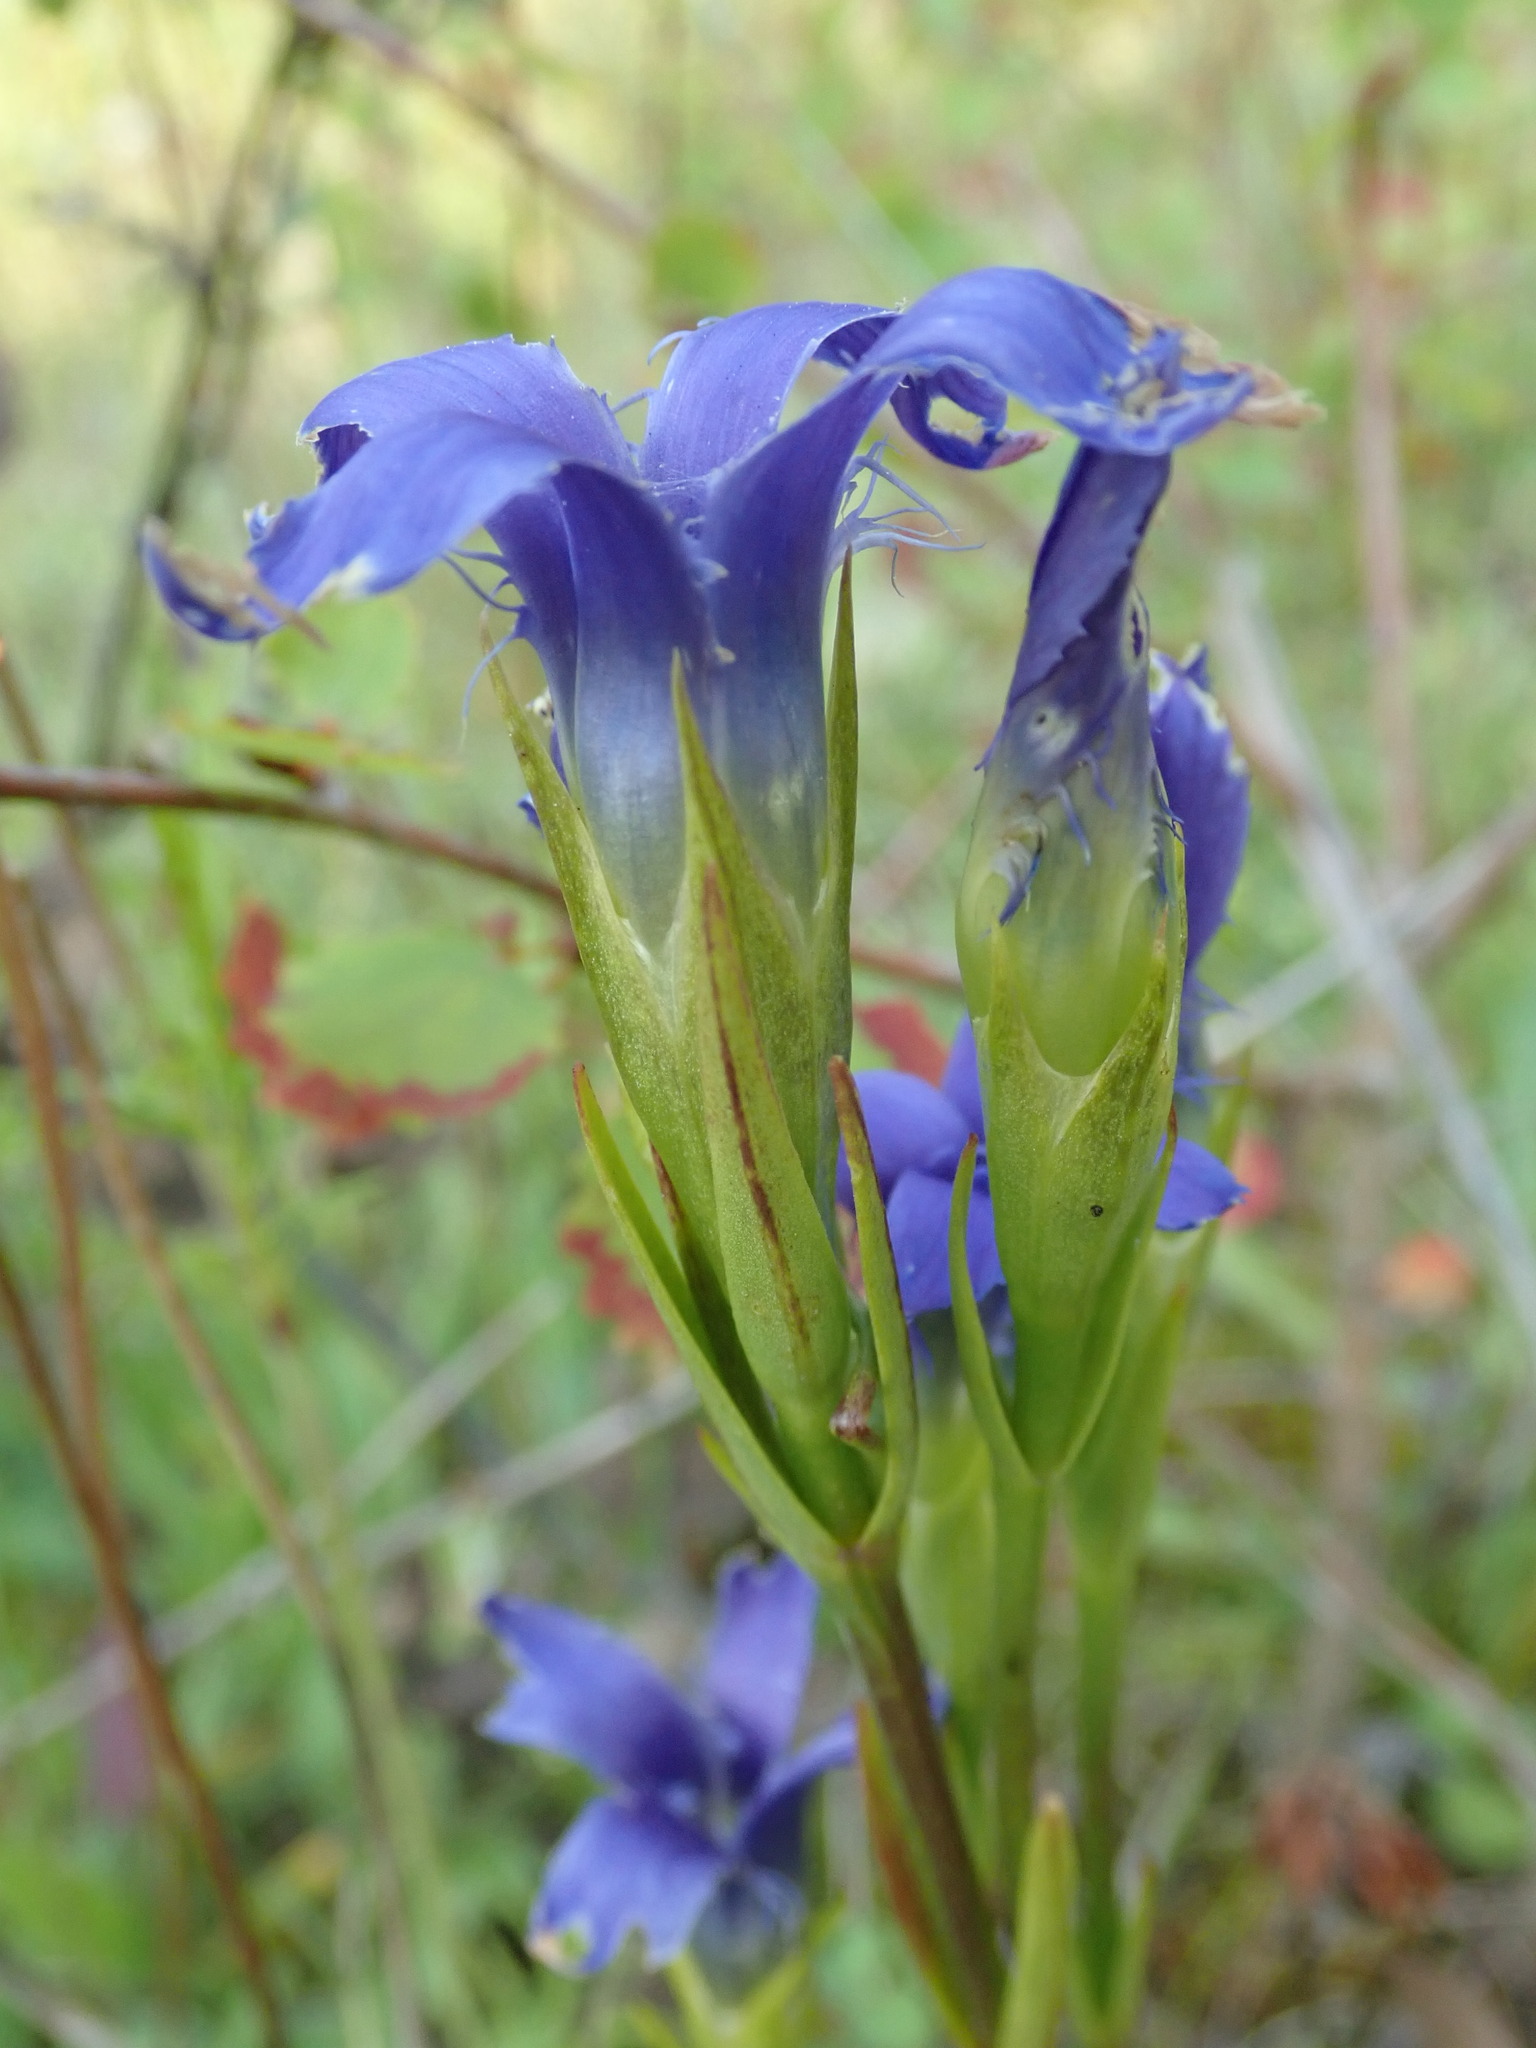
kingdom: Plantae
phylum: Tracheophyta
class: Magnoliopsida
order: Gentianales
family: Gentianaceae
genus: Gentianopsis
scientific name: Gentianopsis ciliata
